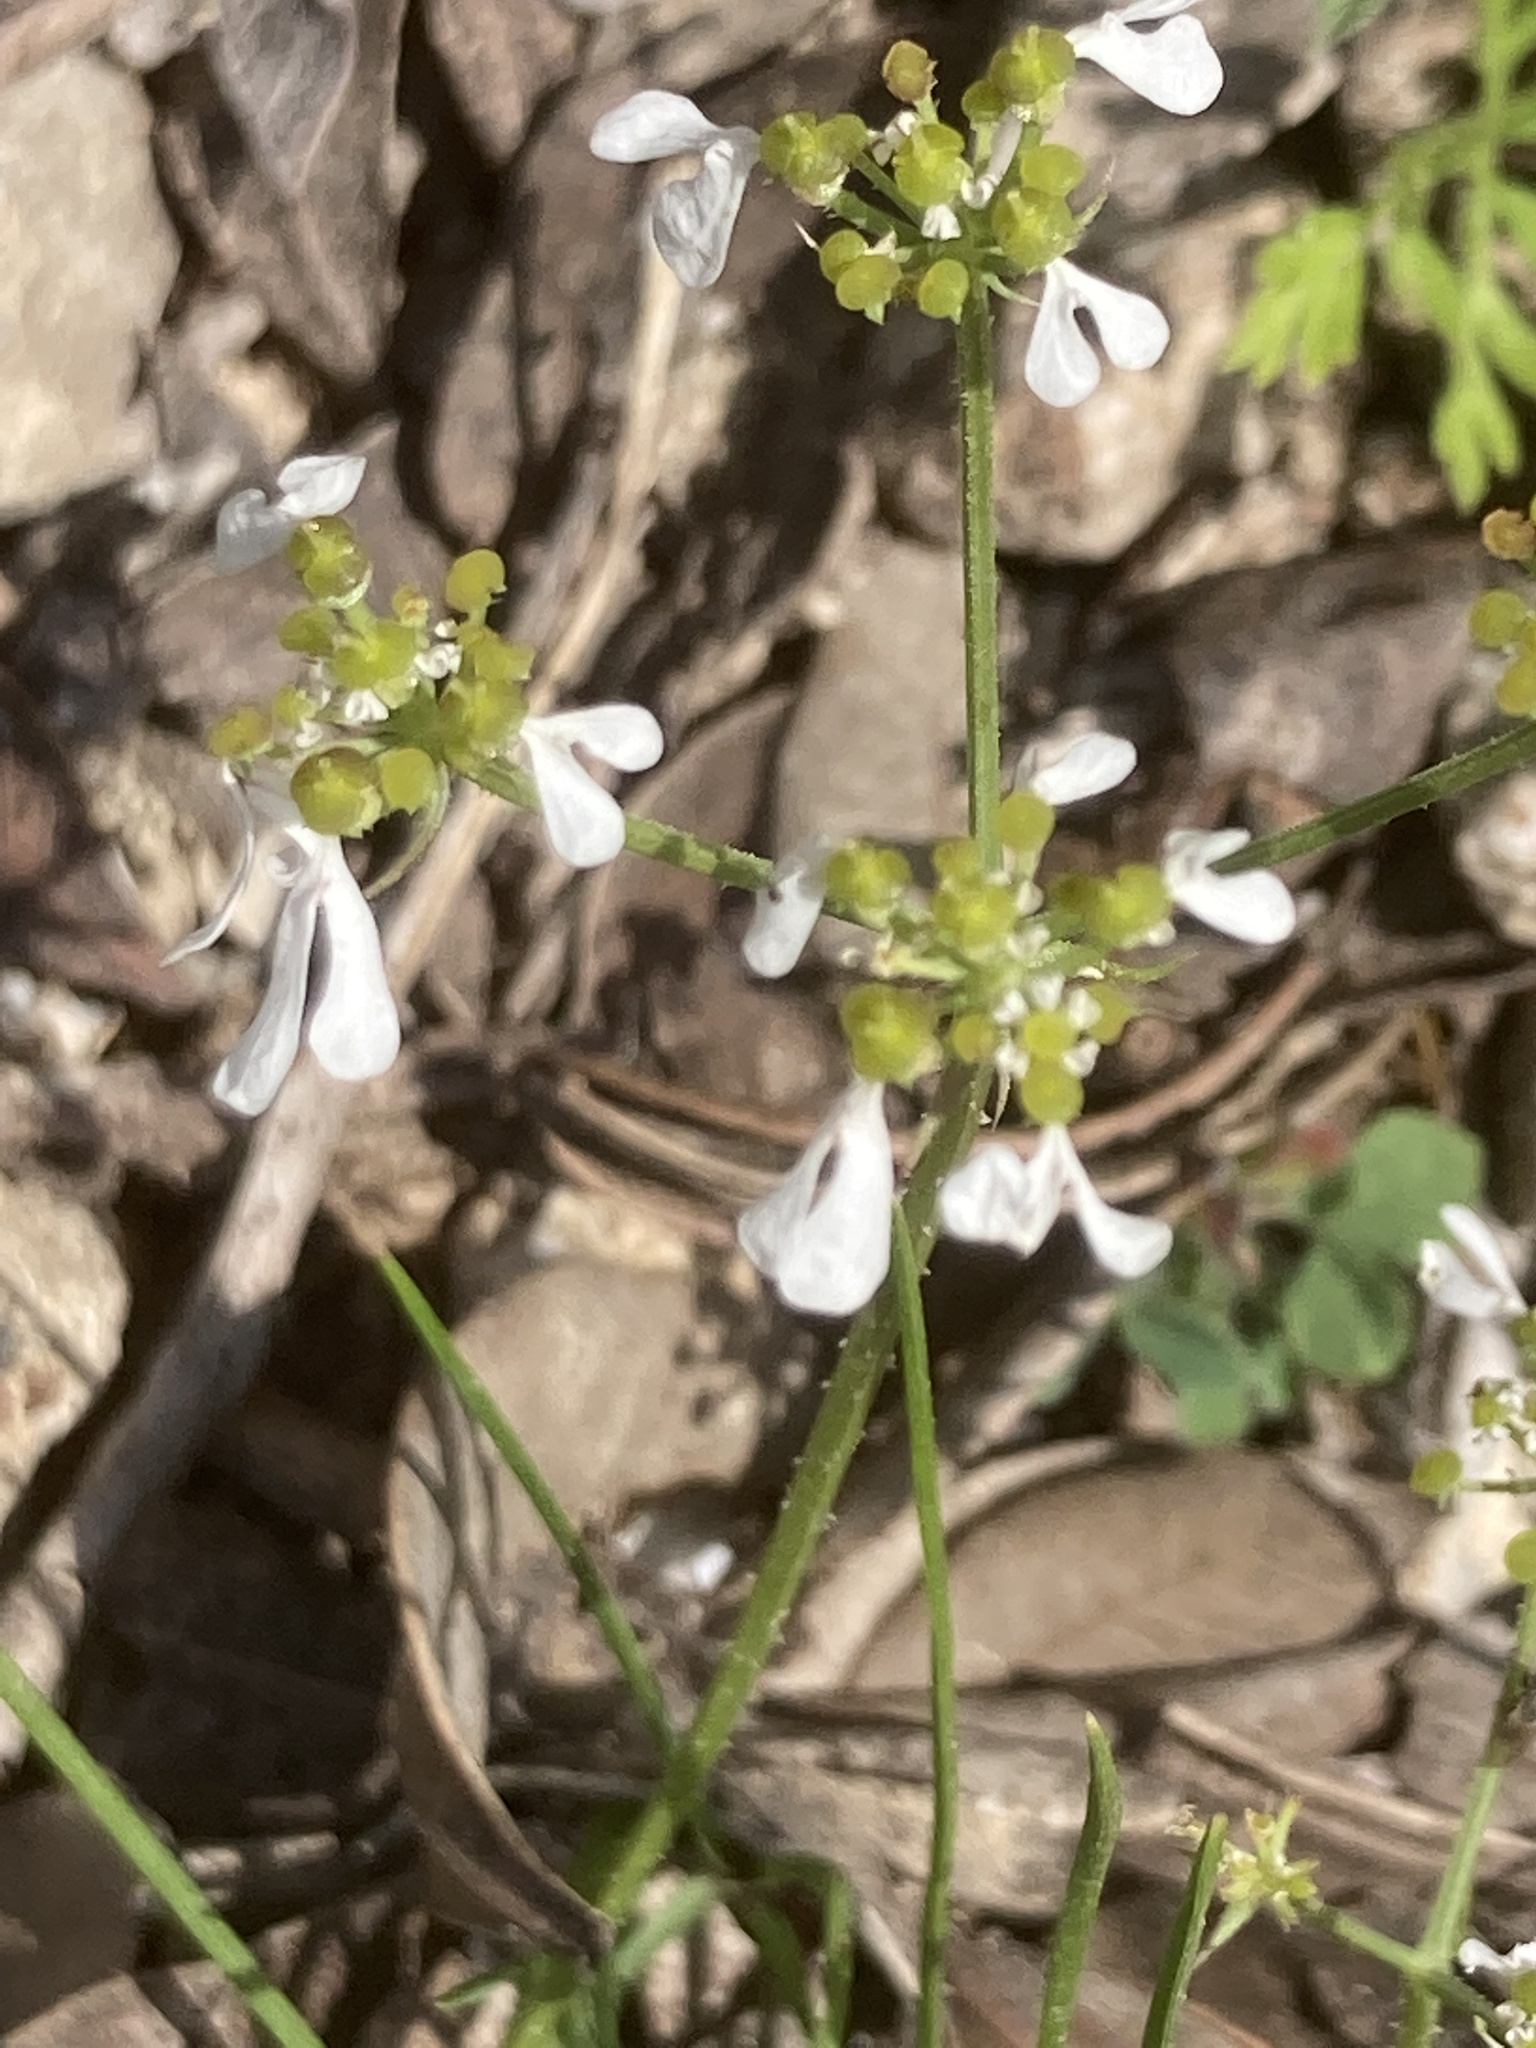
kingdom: Plantae
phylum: Tracheophyta
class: Magnoliopsida
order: Apiales
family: Apiaceae
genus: Tordylium
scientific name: Tordylium apulum
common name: Mediterranean hartwort
